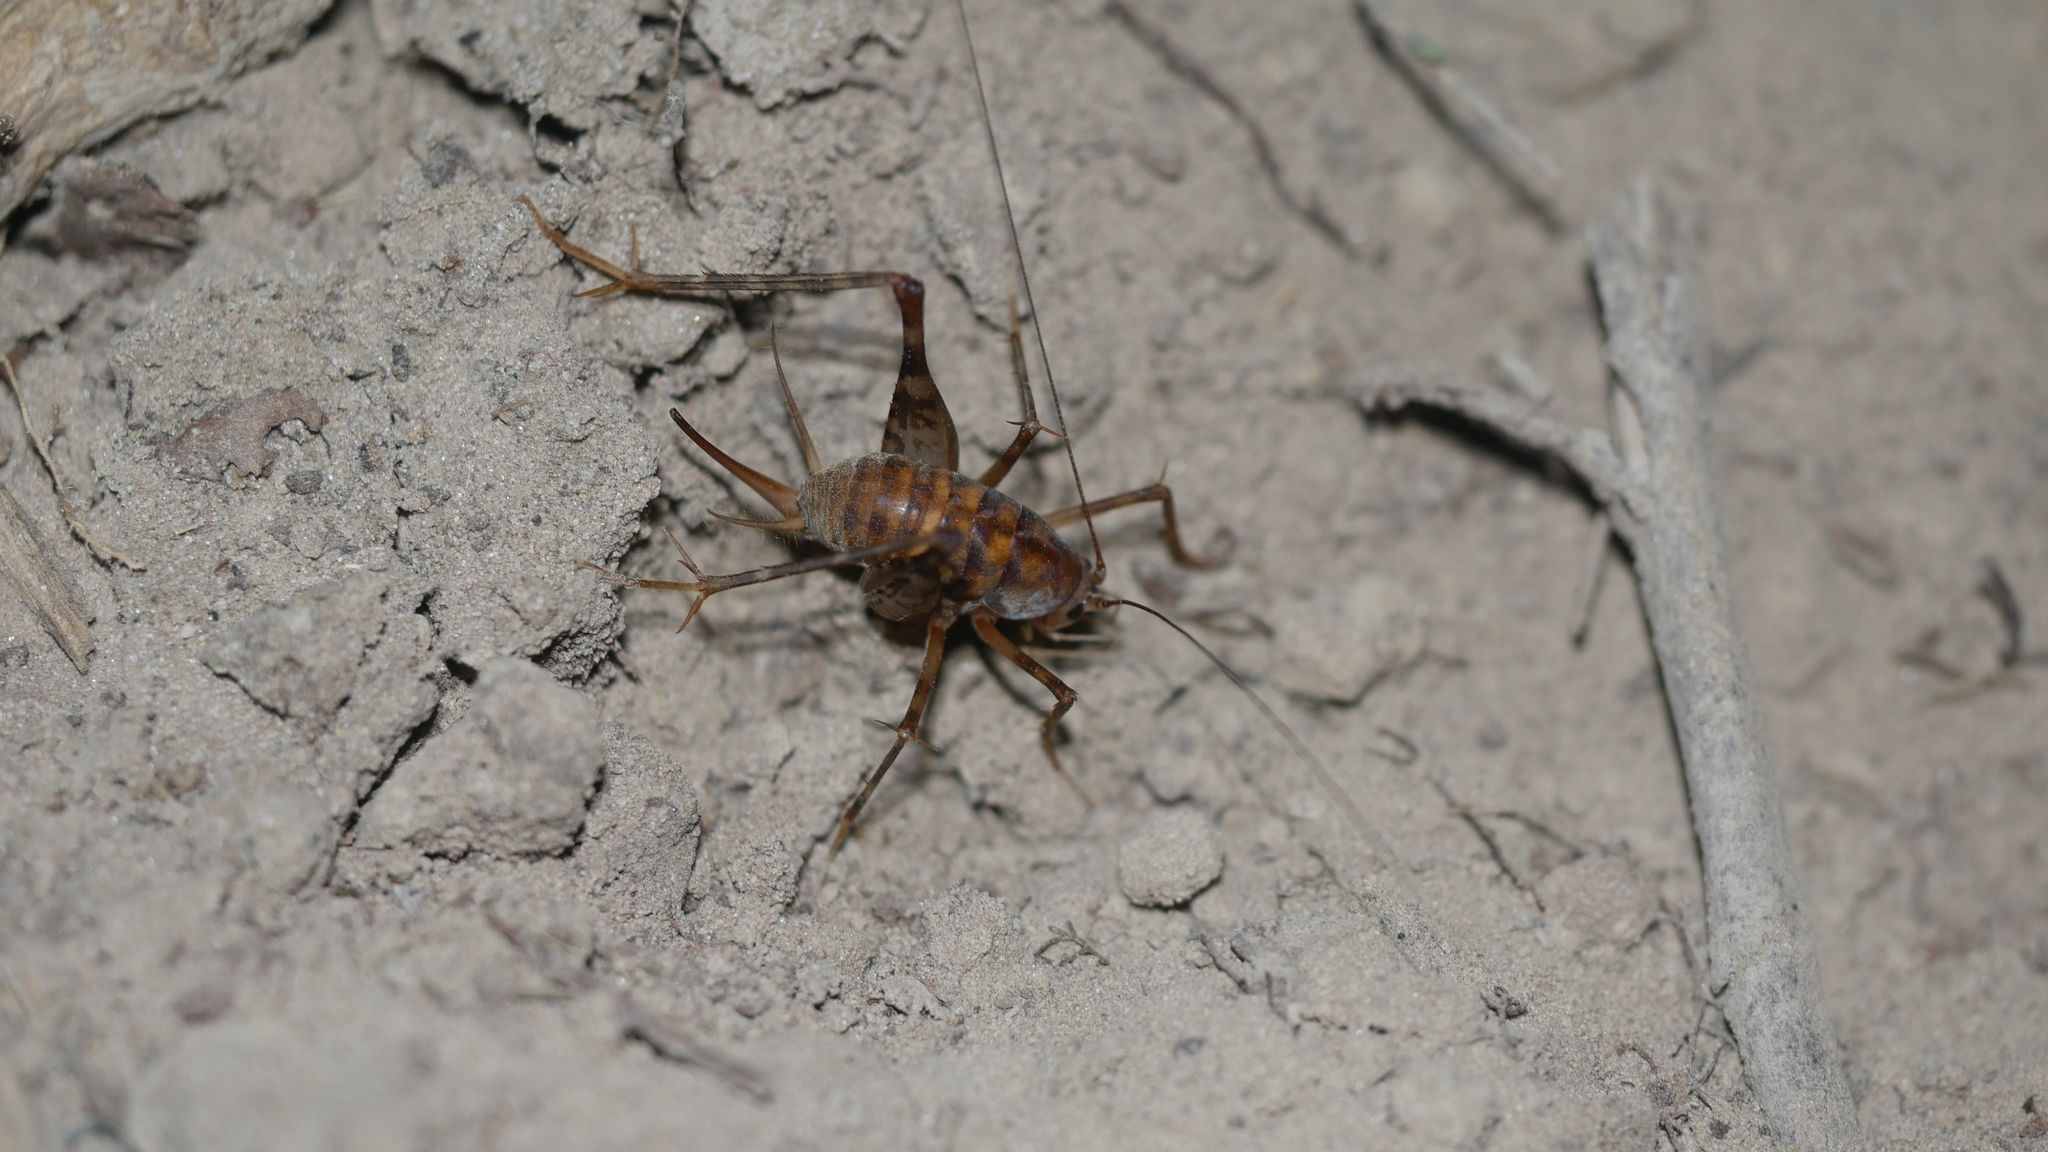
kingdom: Animalia
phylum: Arthropoda
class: Insecta
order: Orthoptera
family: Rhaphidophoridae
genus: Tachycines
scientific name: Tachycines asynamorus
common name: Greenhouse camel cricket
